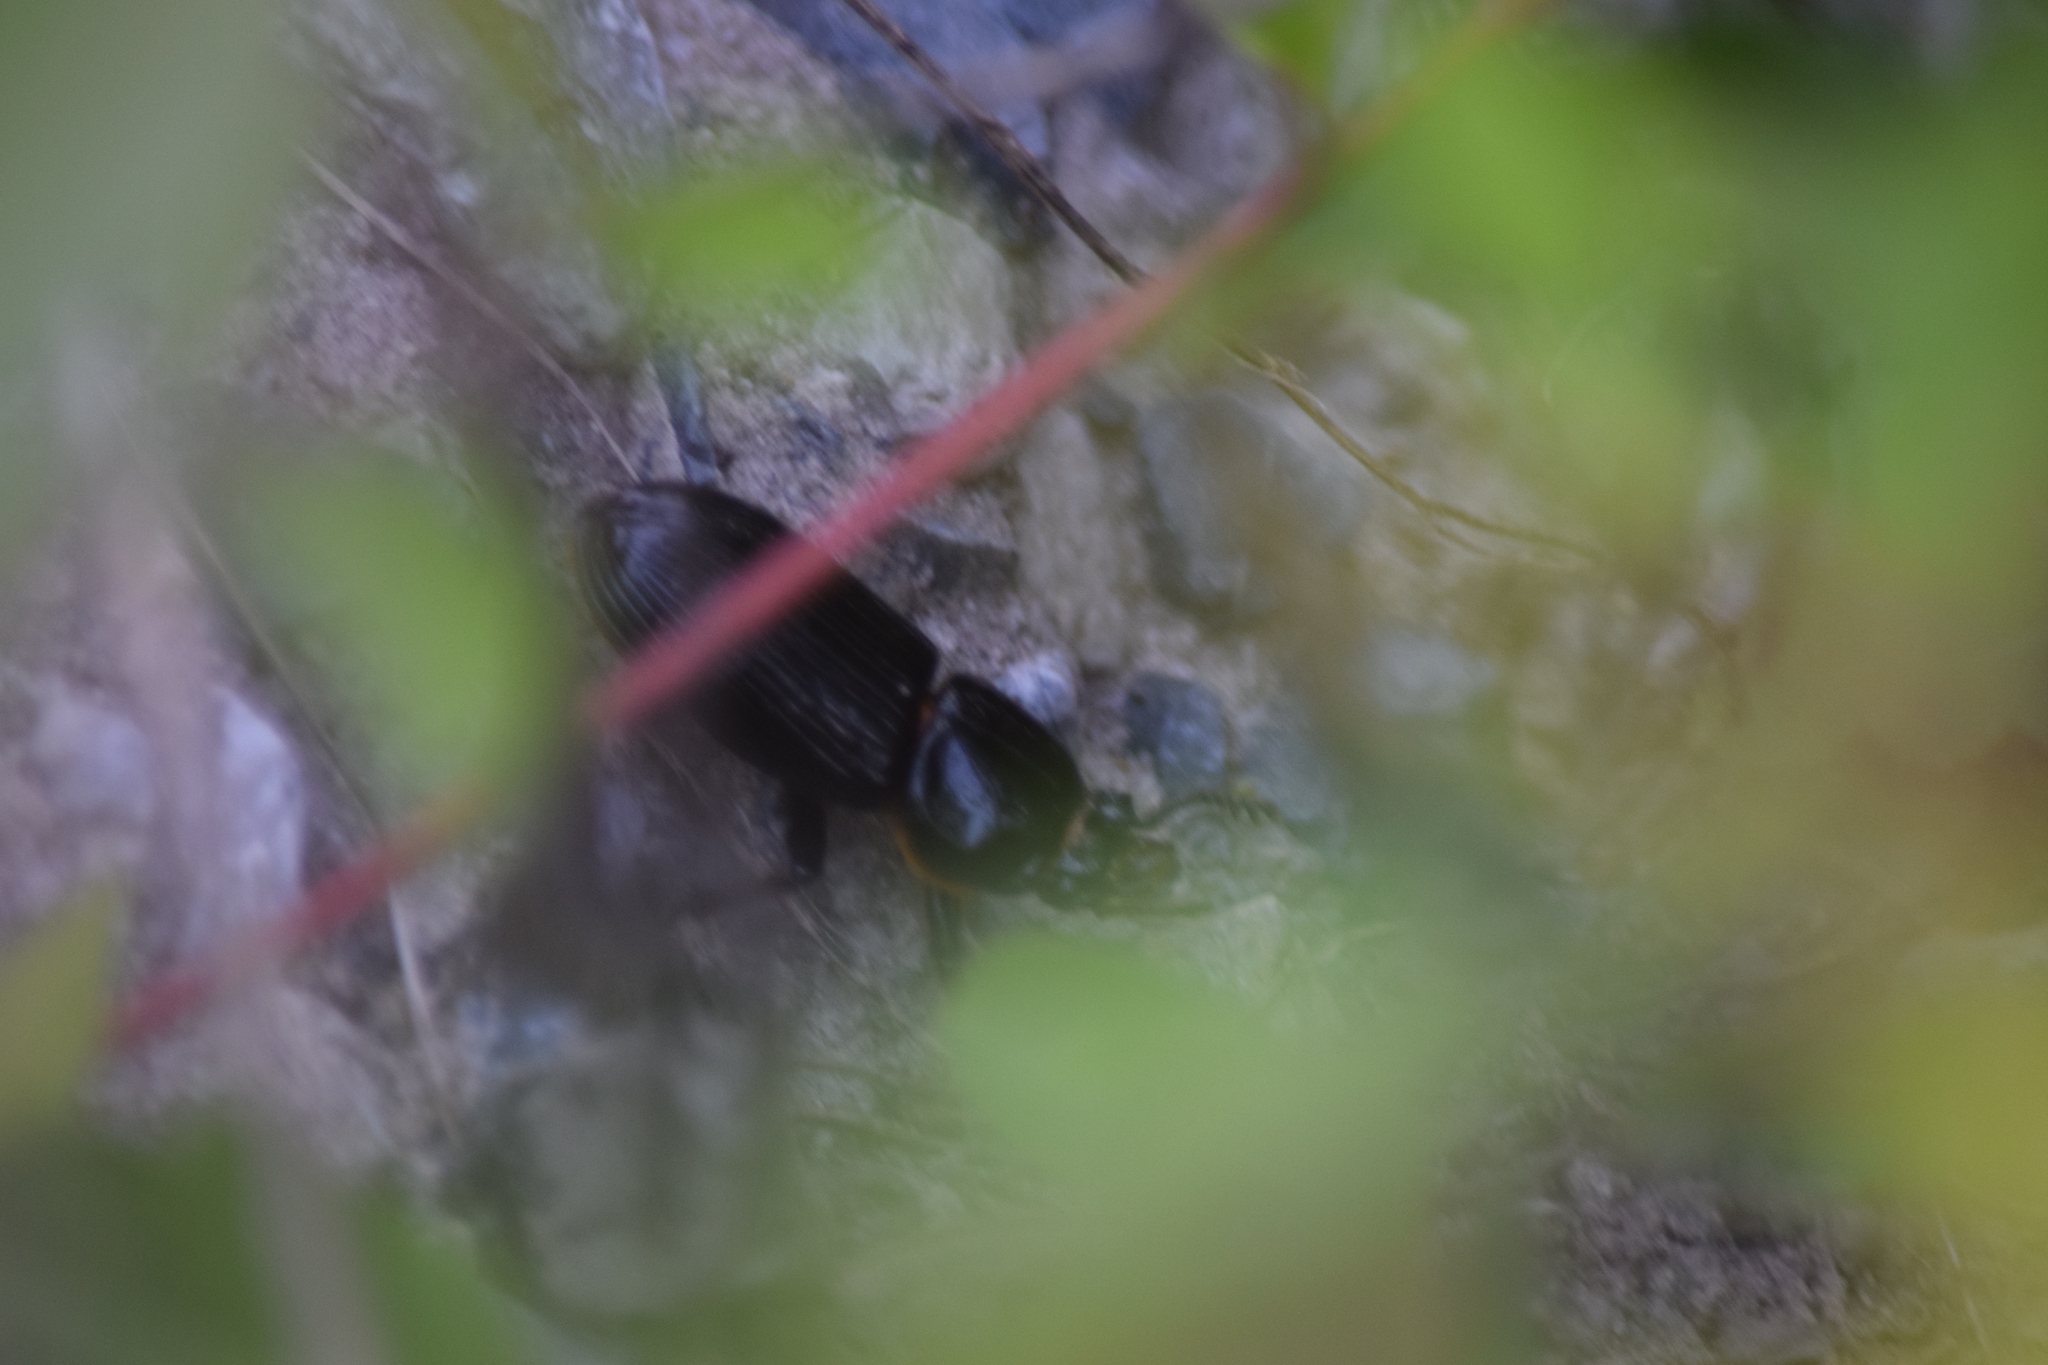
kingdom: Animalia
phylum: Arthropoda
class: Insecta
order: Coleoptera
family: Passalidae
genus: Odontotaenius
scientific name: Odontotaenius disjunctus
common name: Patent leather beetle
